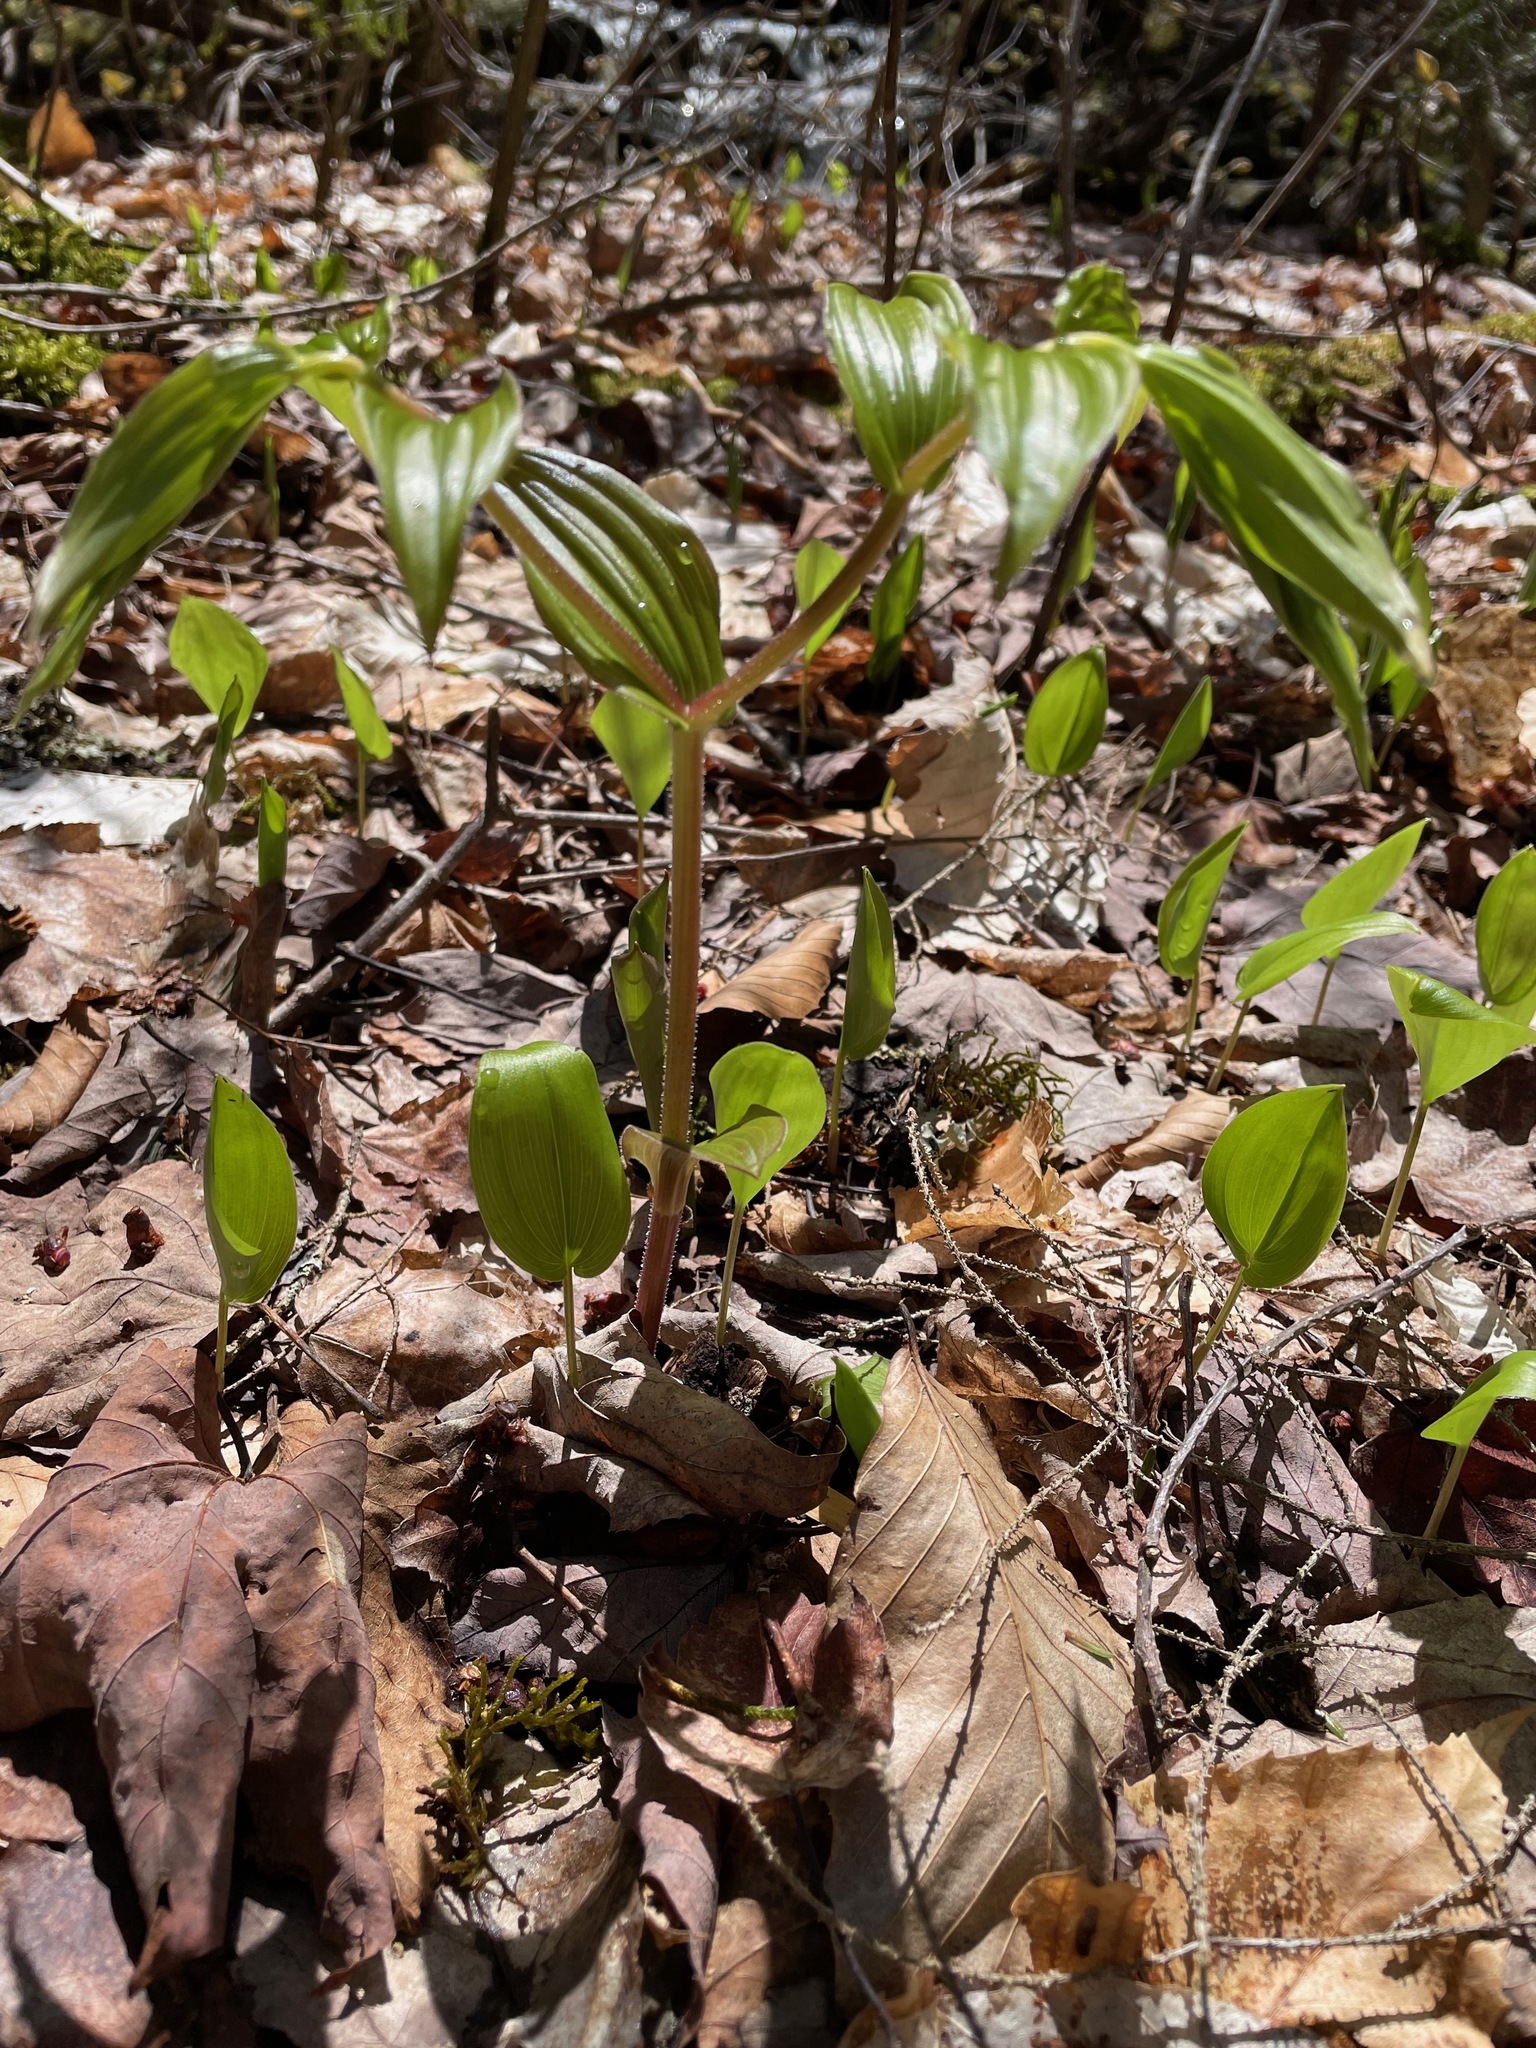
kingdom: Plantae
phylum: Tracheophyta
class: Liliopsida
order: Liliales
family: Liliaceae
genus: Streptopus
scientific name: Streptopus lanceolatus
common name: Rose mandarin
